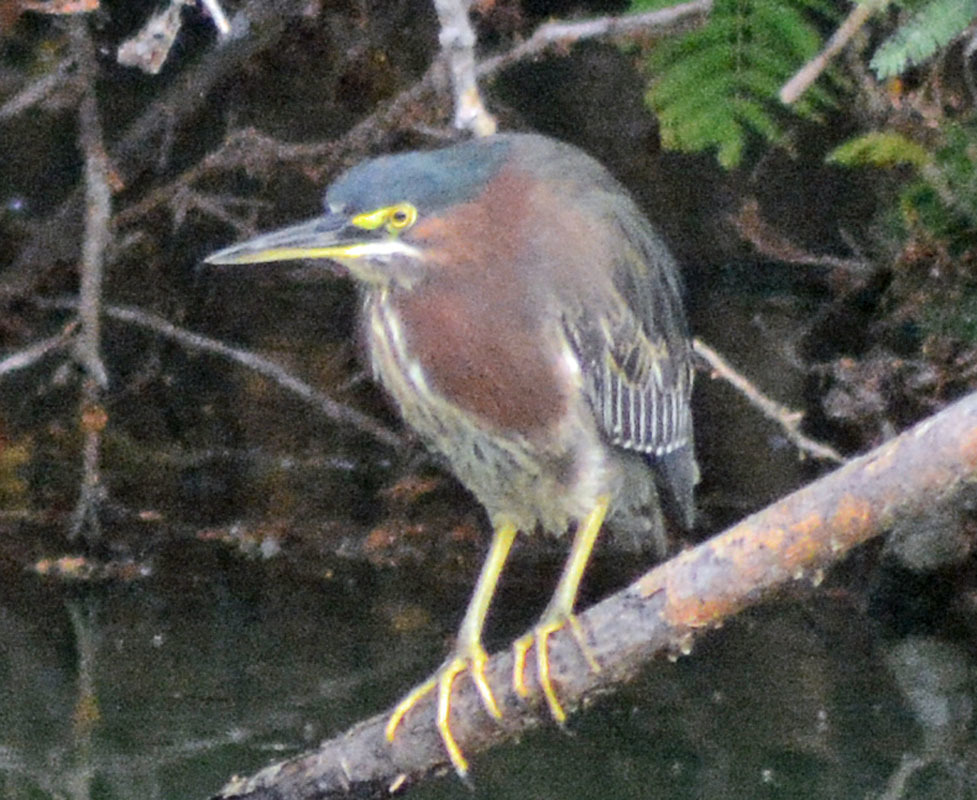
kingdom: Animalia
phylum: Chordata
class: Aves
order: Pelecaniformes
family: Ardeidae
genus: Butorides
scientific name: Butorides virescens
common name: Green heron
